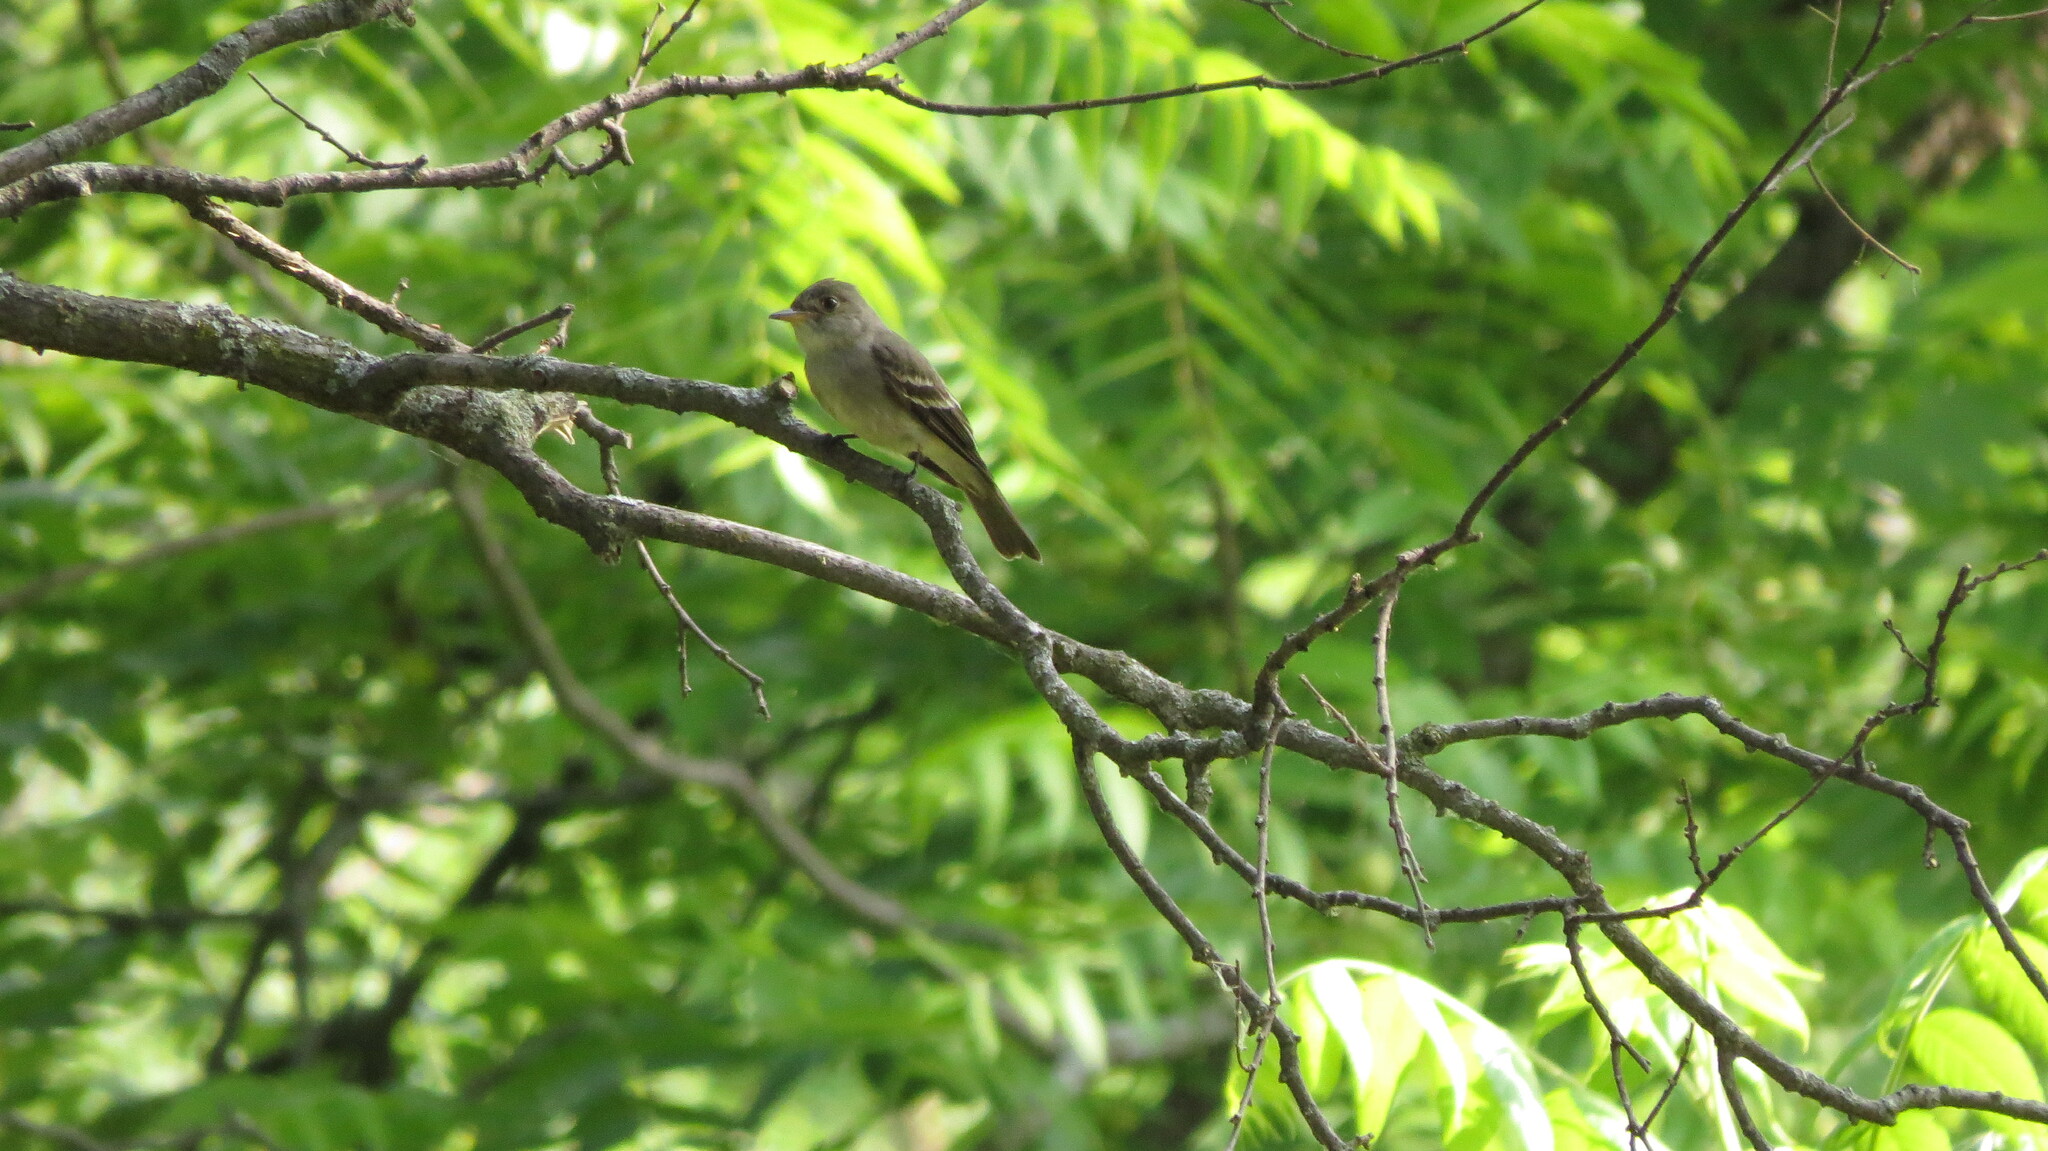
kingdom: Animalia
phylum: Chordata
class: Aves
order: Passeriformes
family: Tyrannidae
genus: Contopus
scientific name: Contopus virens
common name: Eastern wood-pewee
